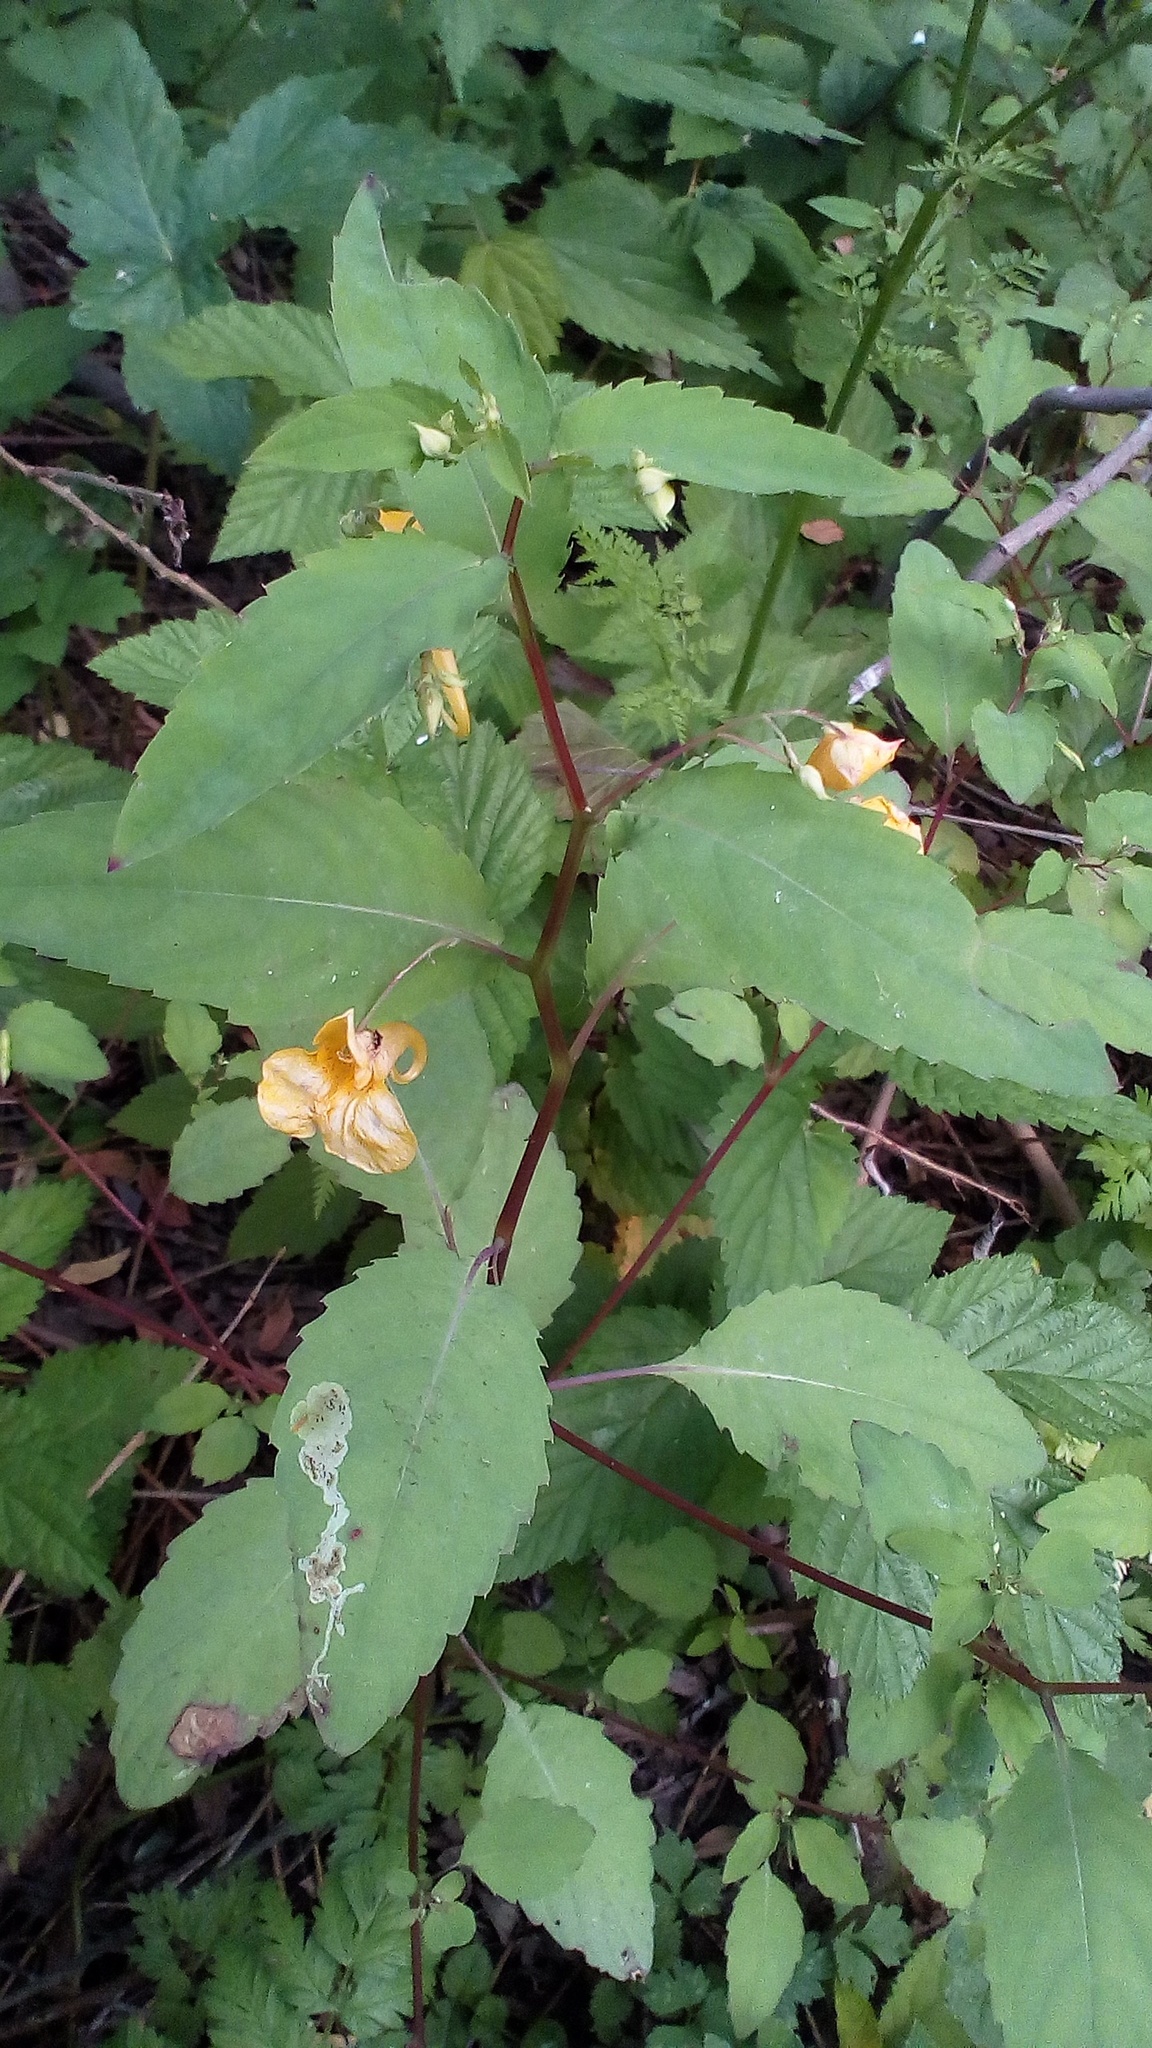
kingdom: Plantae
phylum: Tracheophyta
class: Magnoliopsida
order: Ericales
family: Balsaminaceae
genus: Impatiens
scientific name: Impatiens noli-tangere
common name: Touch-me-not balsam
